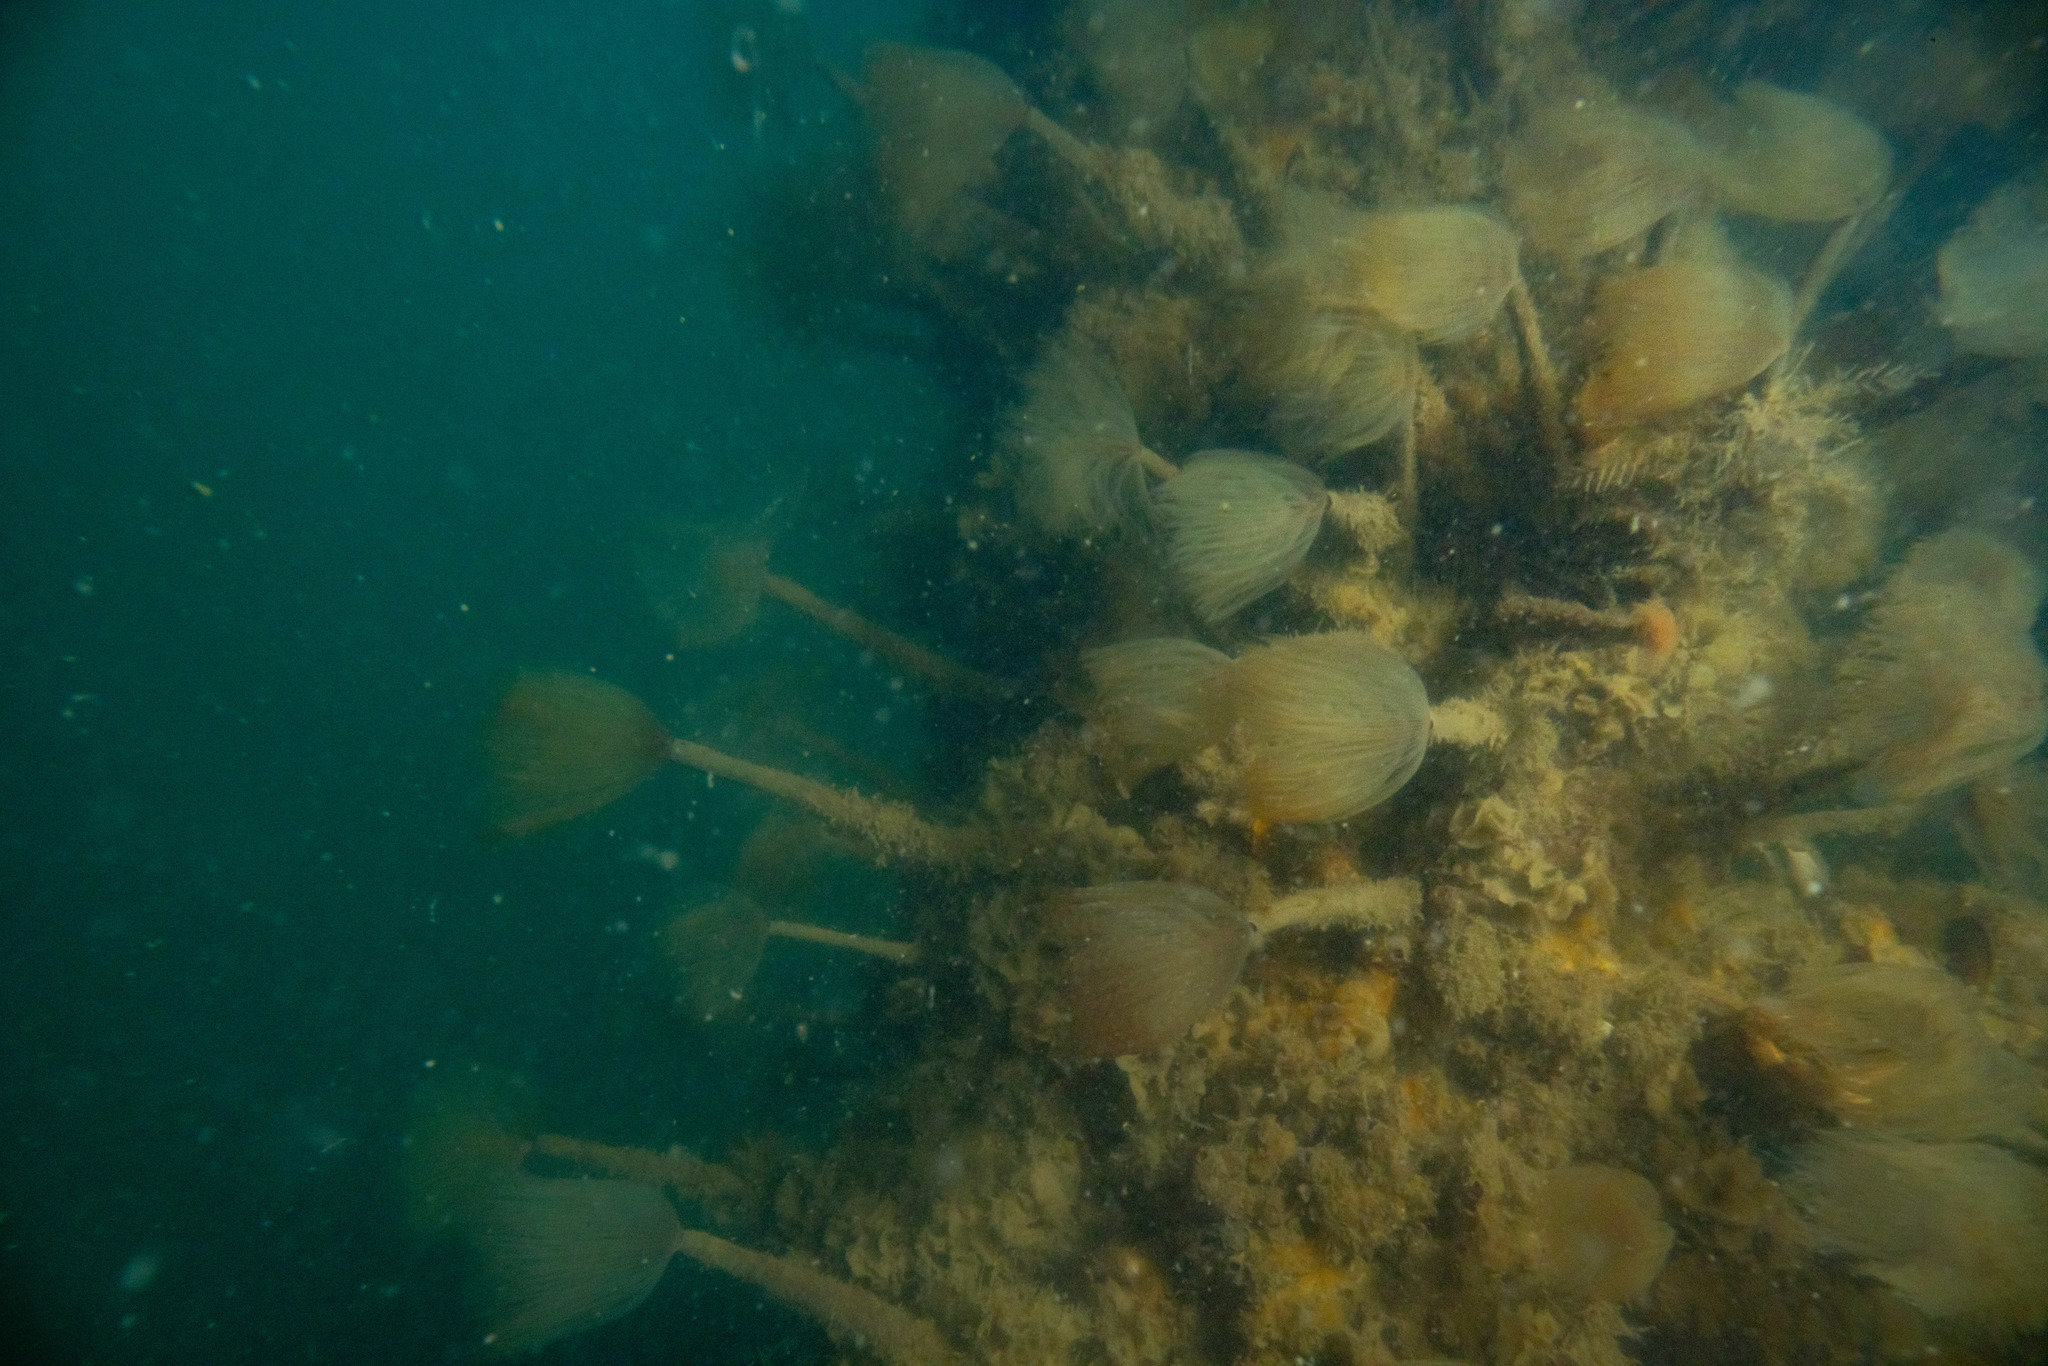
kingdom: Animalia
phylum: Annelida
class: Polychaeta
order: Sabellida
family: Sabellidae
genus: Sabella
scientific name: Sabella spallanzanii
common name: Feather duster worm
